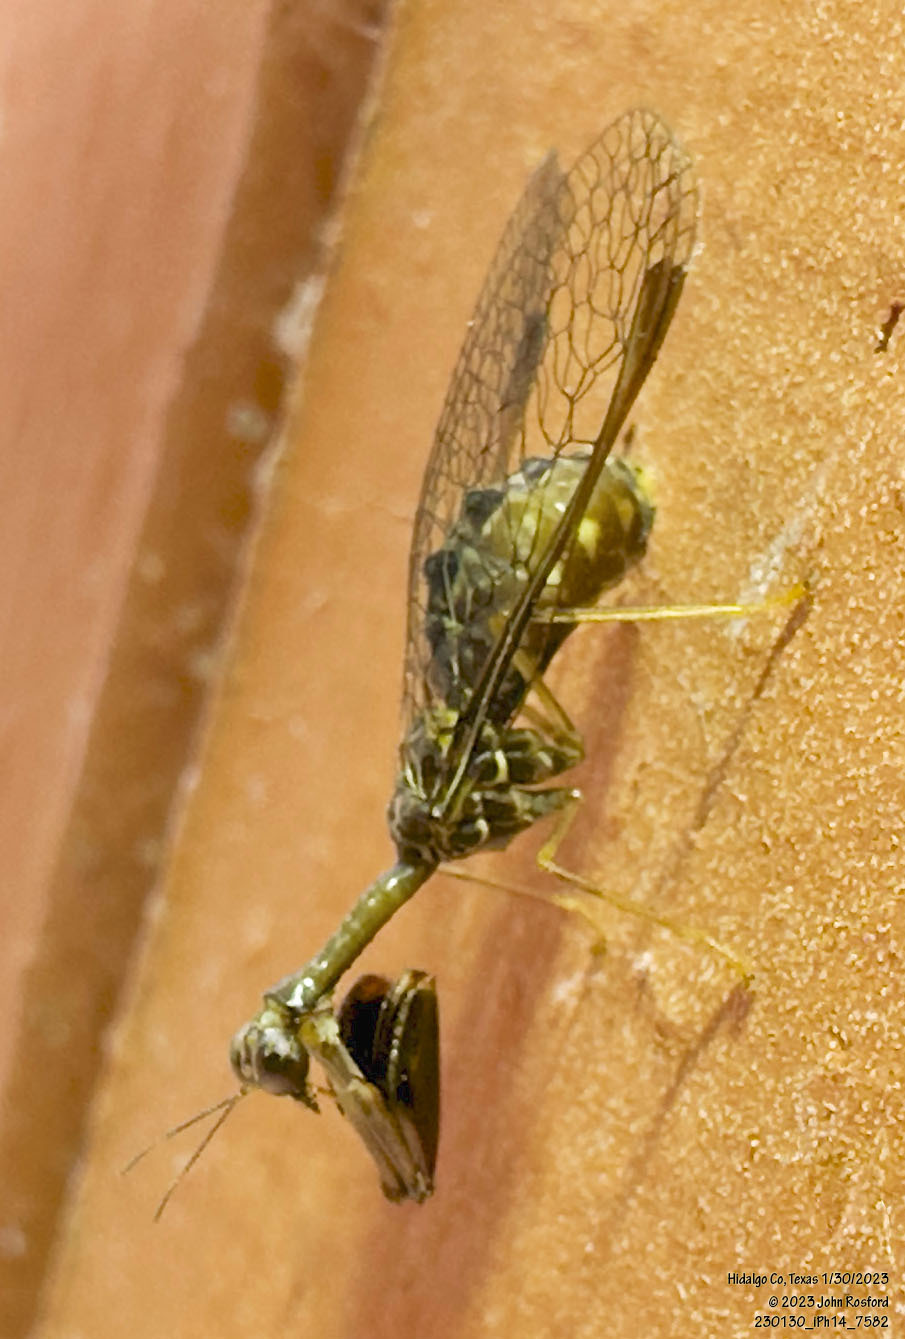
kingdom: Animalia
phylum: Arthropoda
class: Insecta
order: Neuroptera
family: Mantispidae
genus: Dicromantispa
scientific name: Dicromantispa sayi
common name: Say's mantidfly
